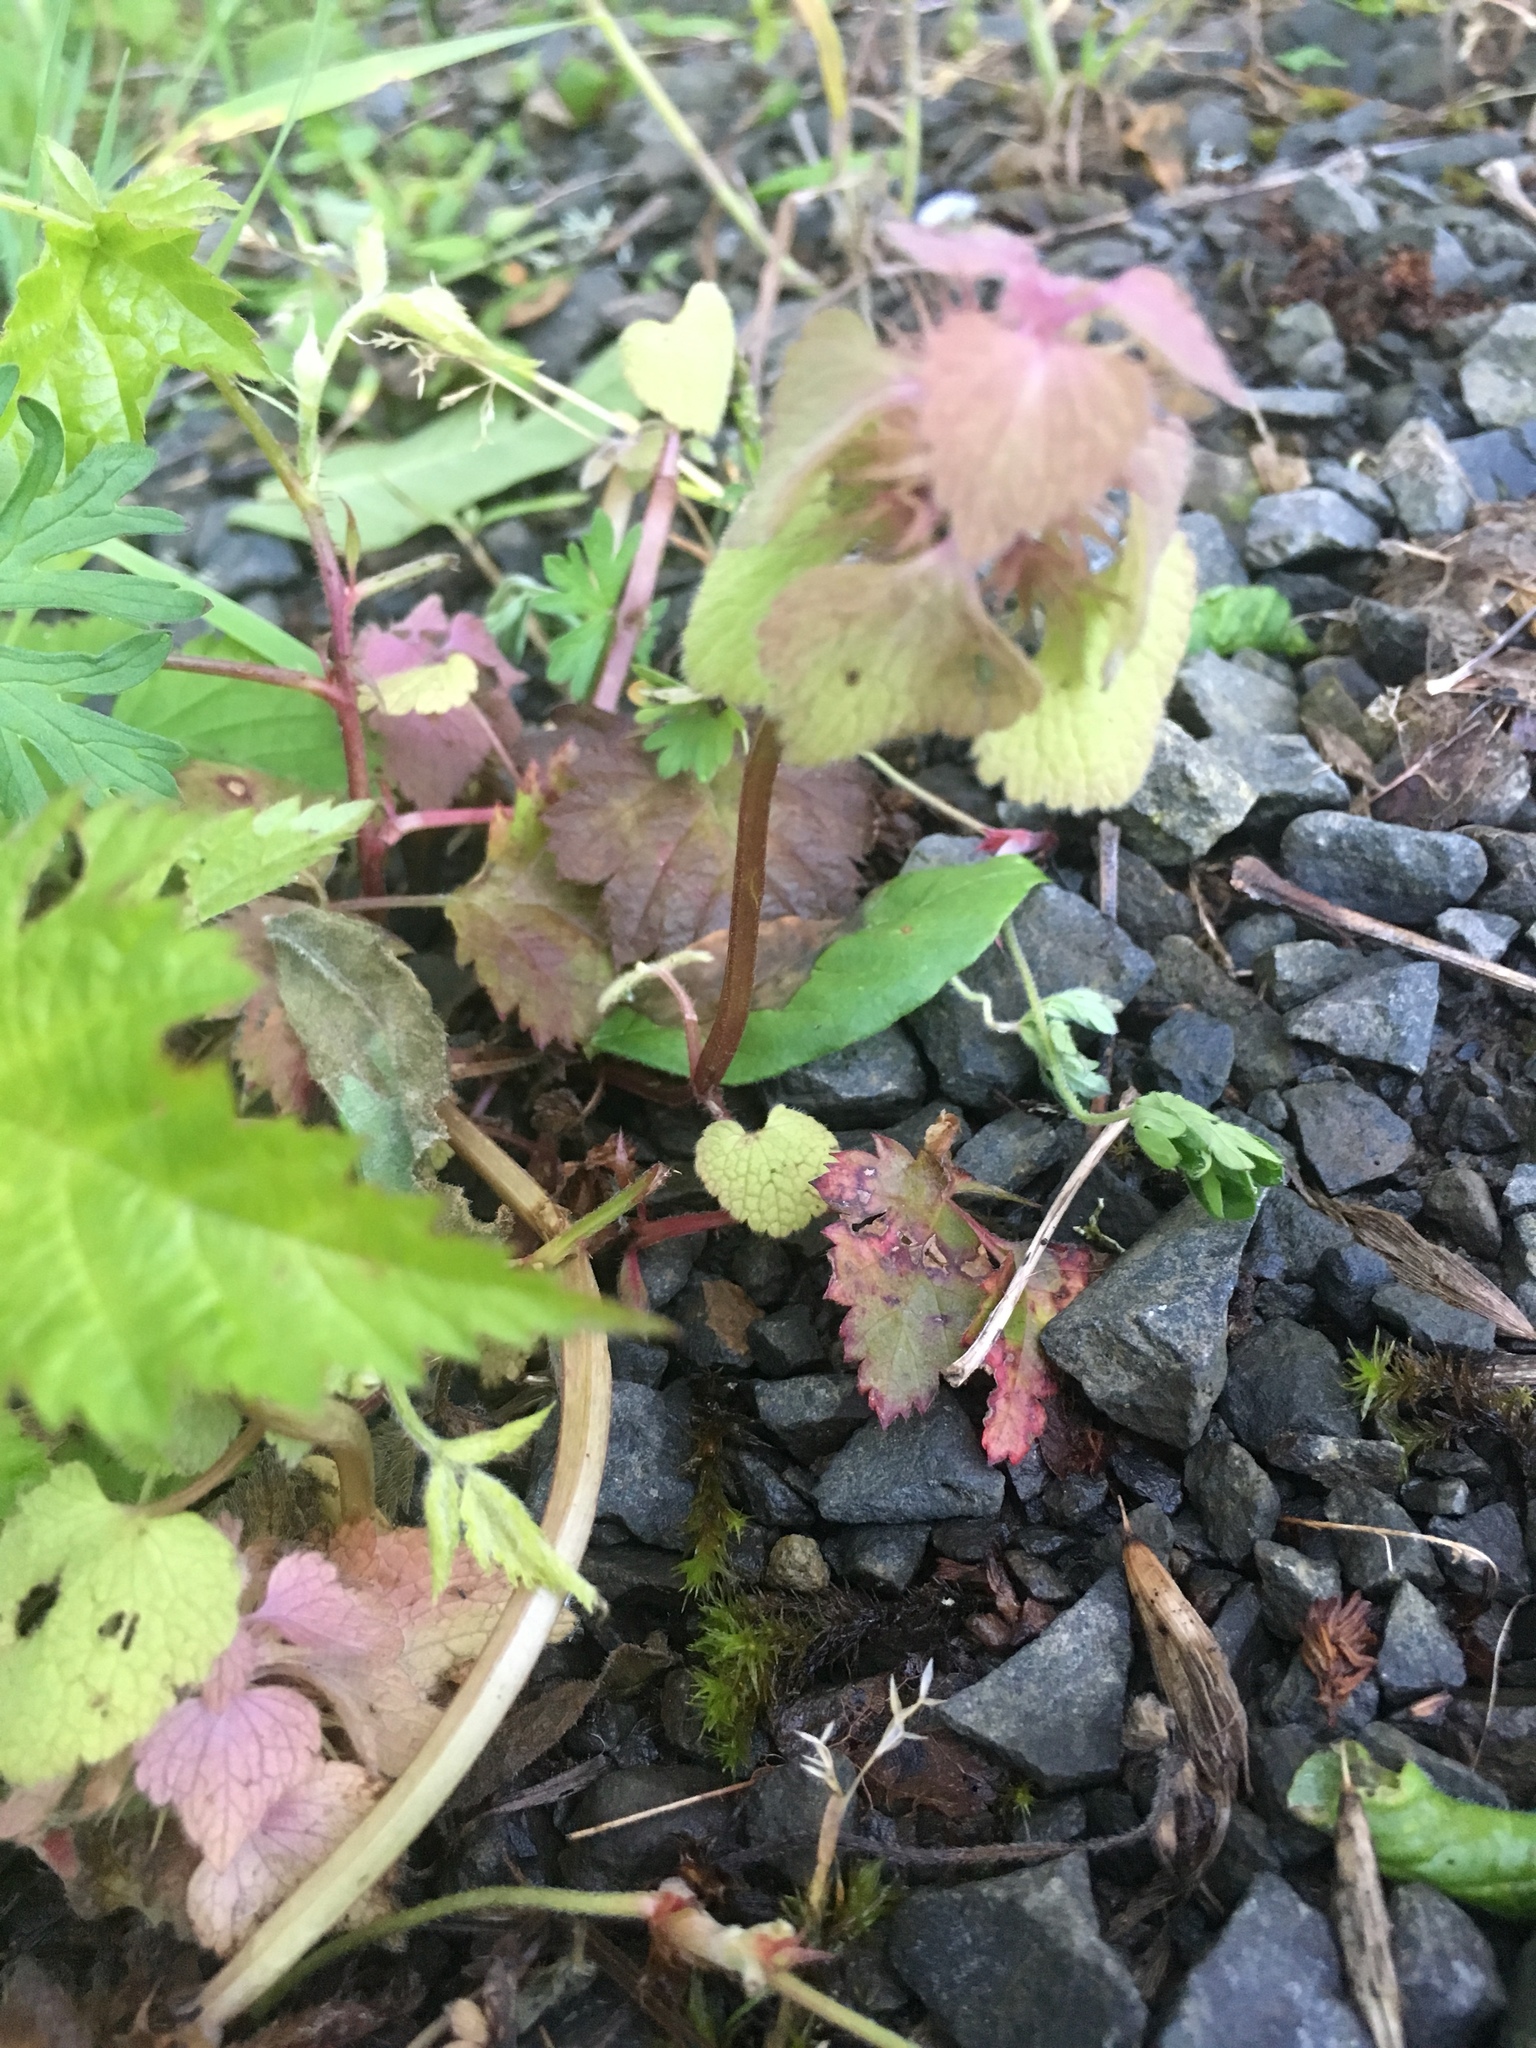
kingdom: Plantae
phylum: Tracheophyta
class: Magnoliopsida
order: Lamiales
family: Lamiaceae
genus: Lamium
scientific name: Lamium purpureum
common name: Red dead-nettle
